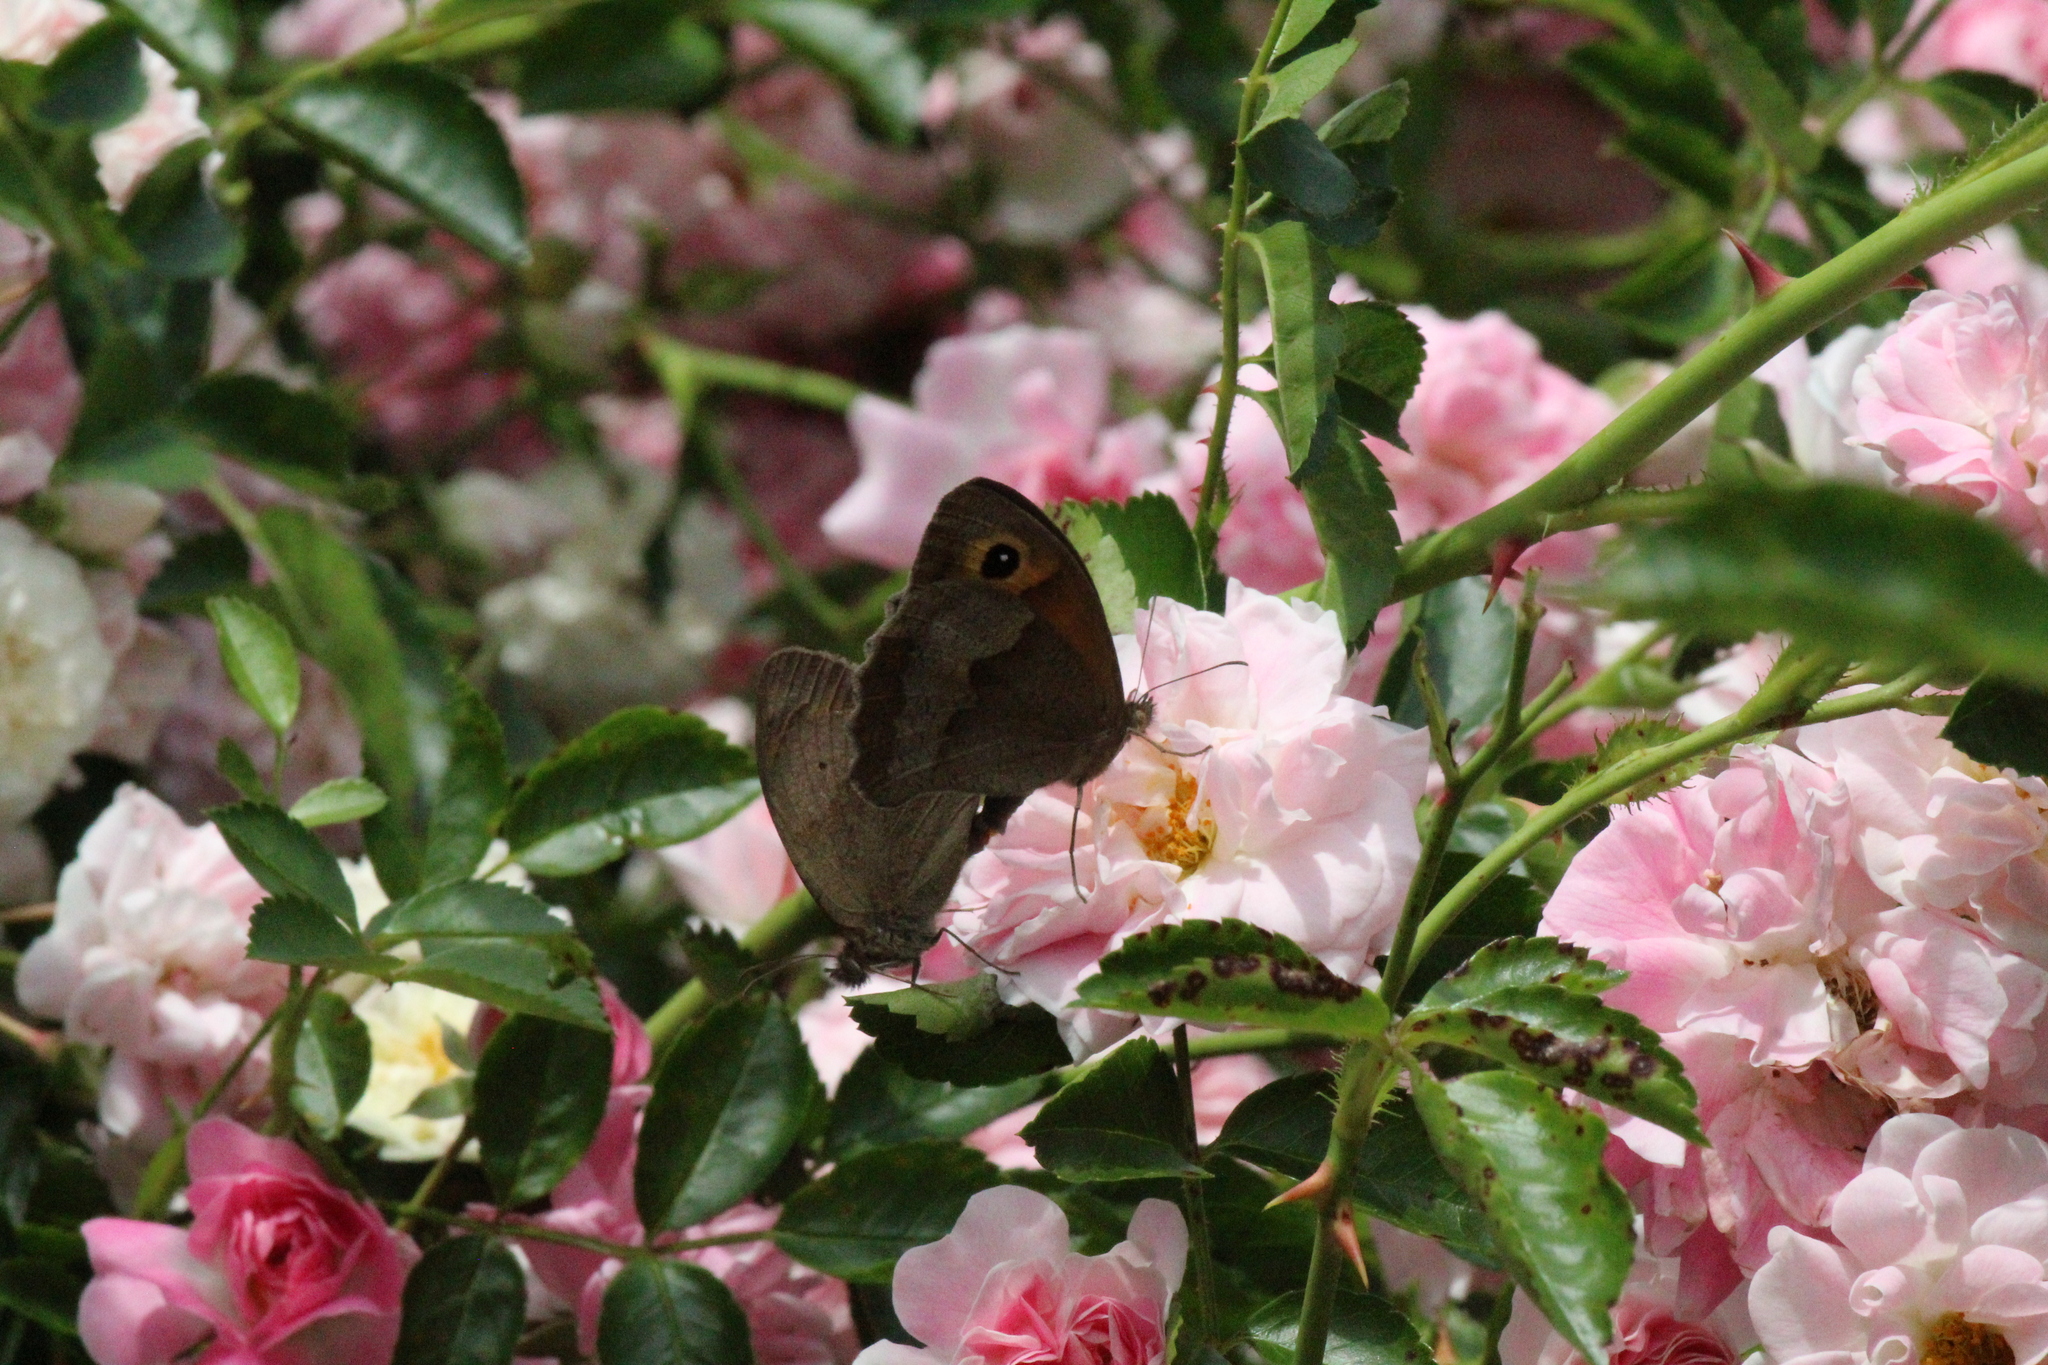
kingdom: Animalia
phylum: Arthropoda
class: Insecta
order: Lepidoptera
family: Nymphalidae
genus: Maniola
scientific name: Maniola jurtina
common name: Meadow brown
